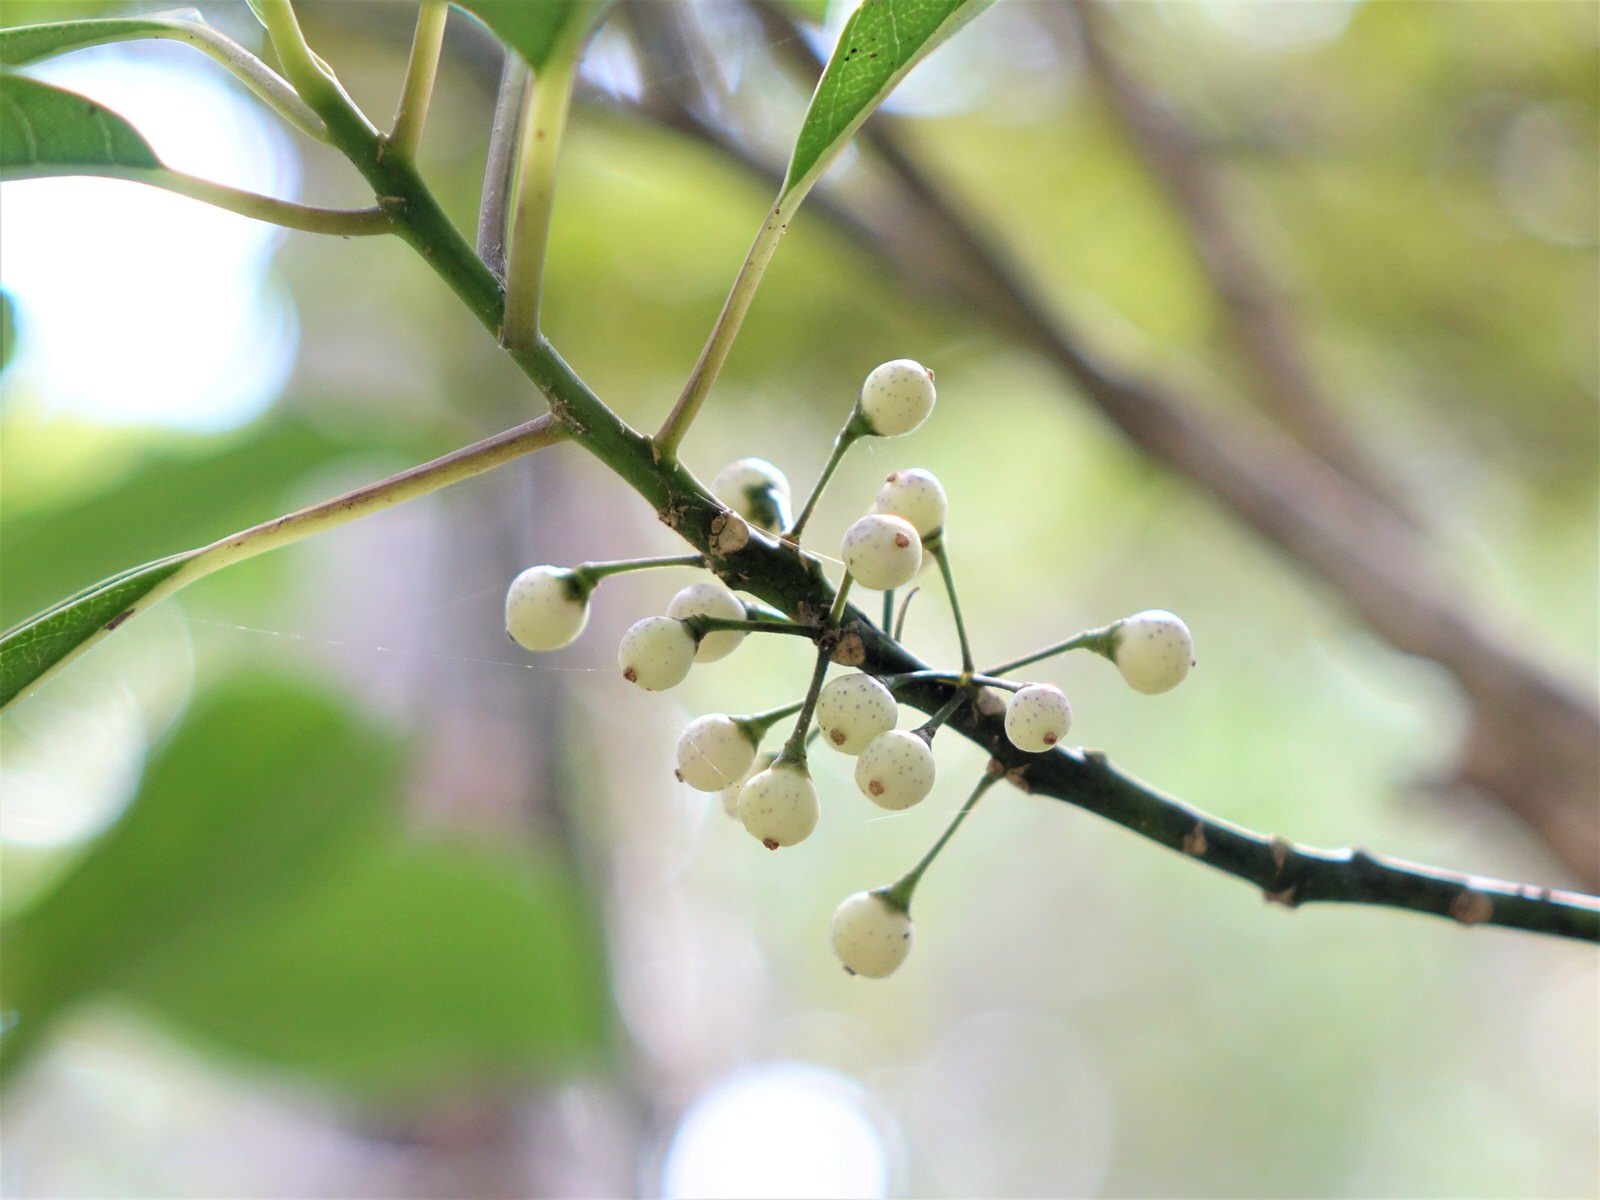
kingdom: Plantae
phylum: Tracheophyta
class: Magnoliopsida
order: Malpighiales
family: Violaceae
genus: Melicytus
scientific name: Melicytus macrophyllus
